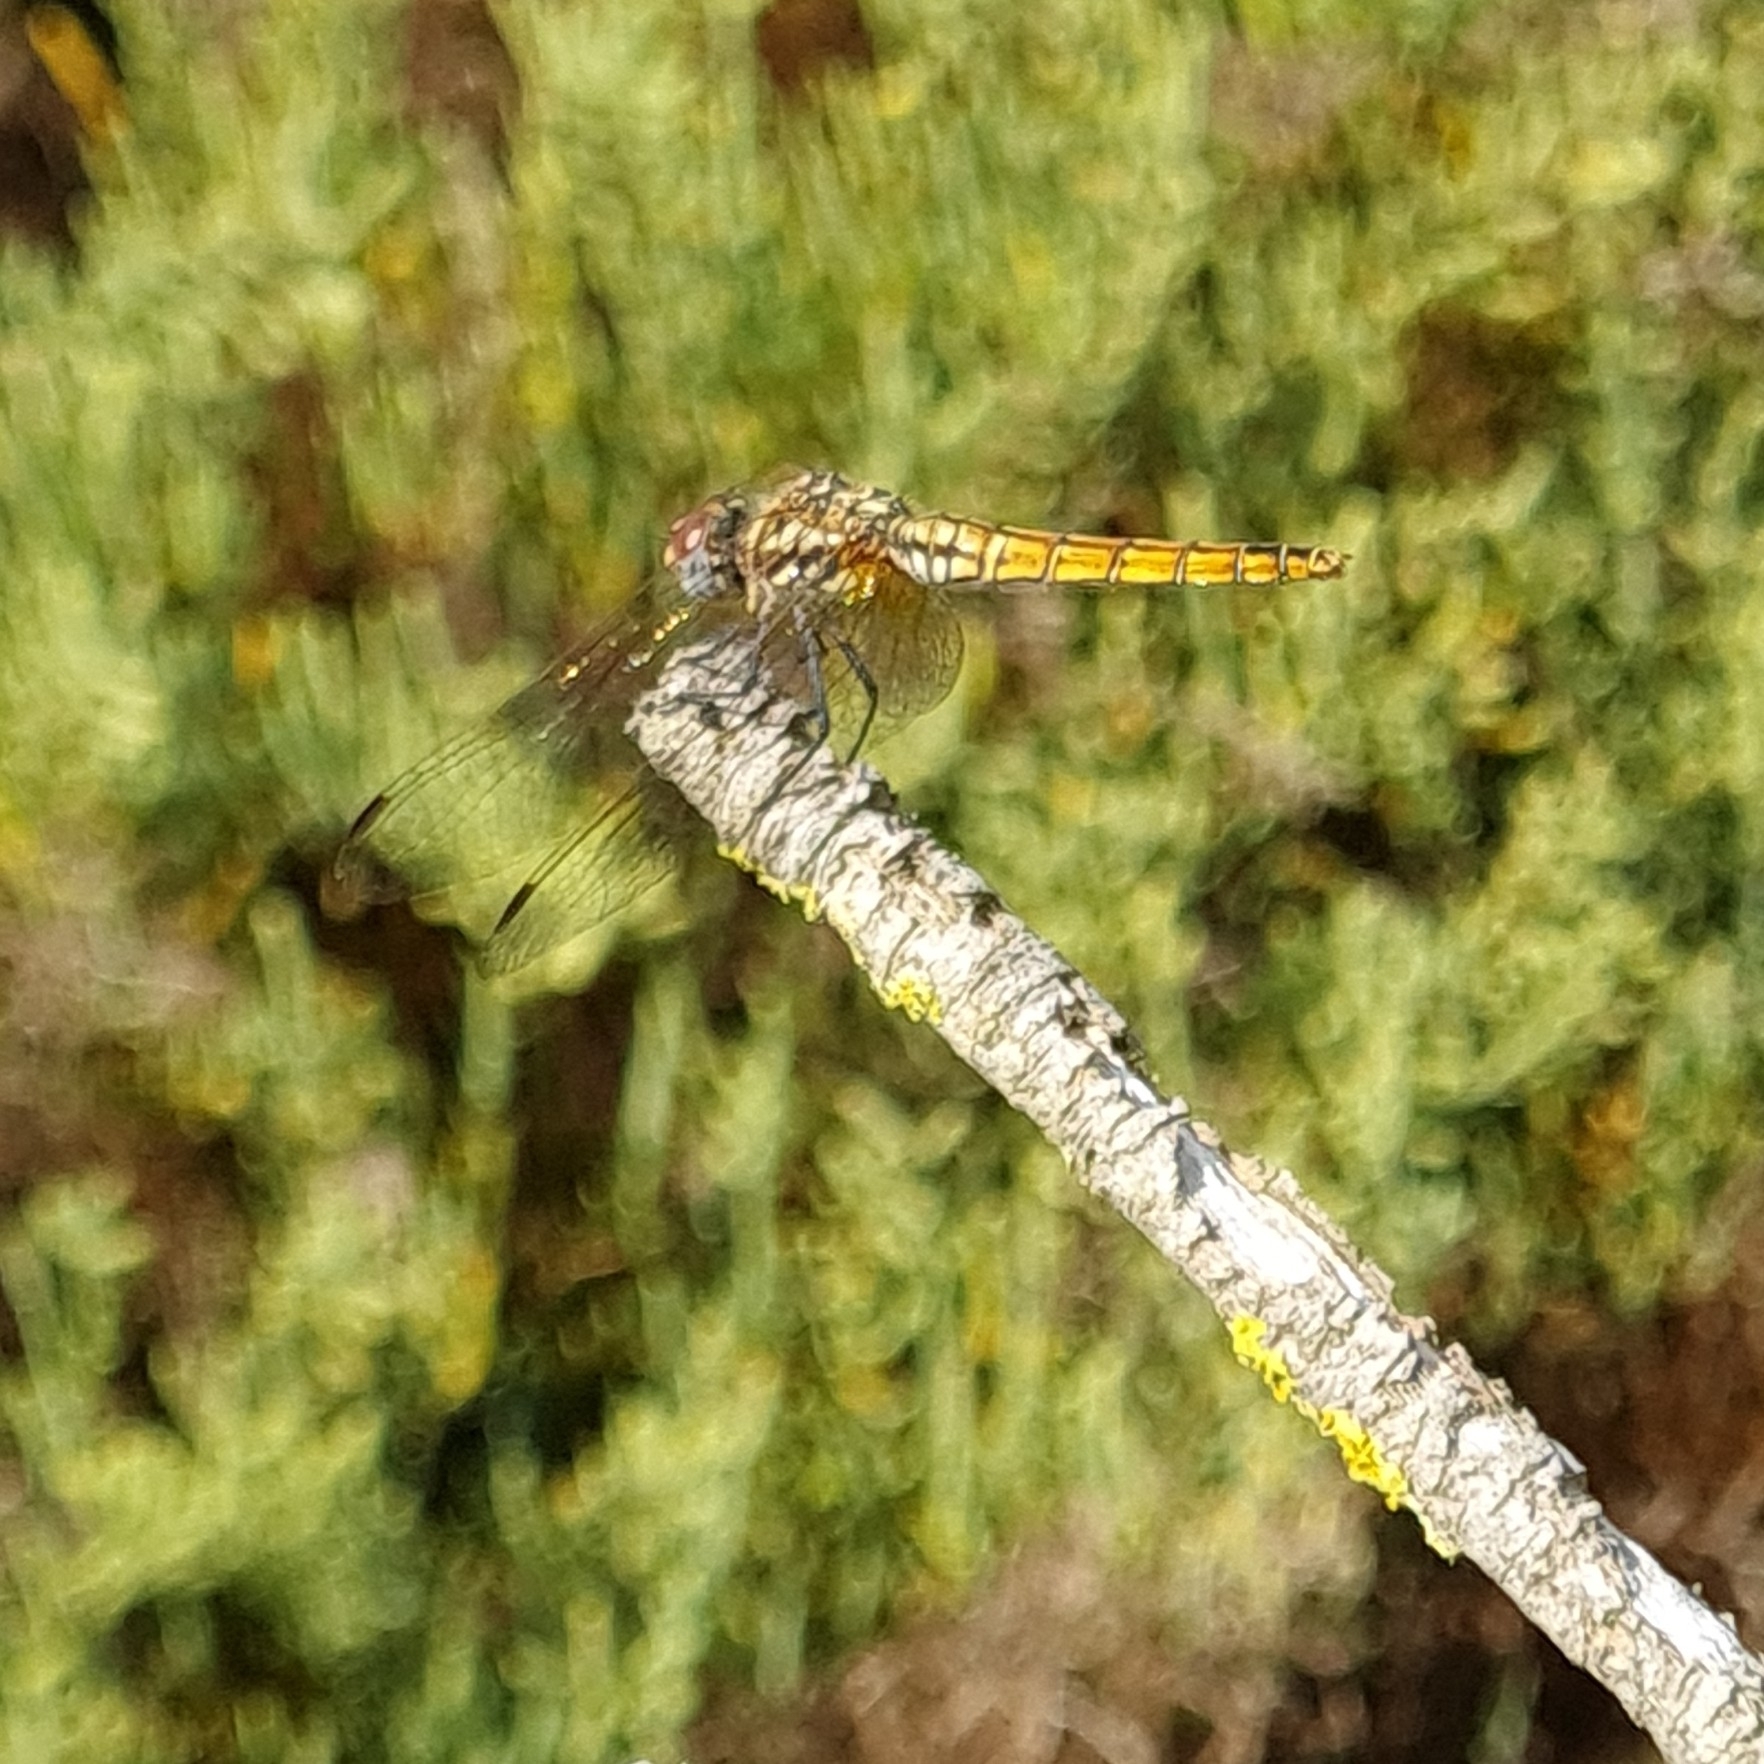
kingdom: Animalia
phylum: Arthropoda
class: Insecta
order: Odonata
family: Libellulidae
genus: Trithemis
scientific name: Trithemis annulata
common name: Violet dropwing
